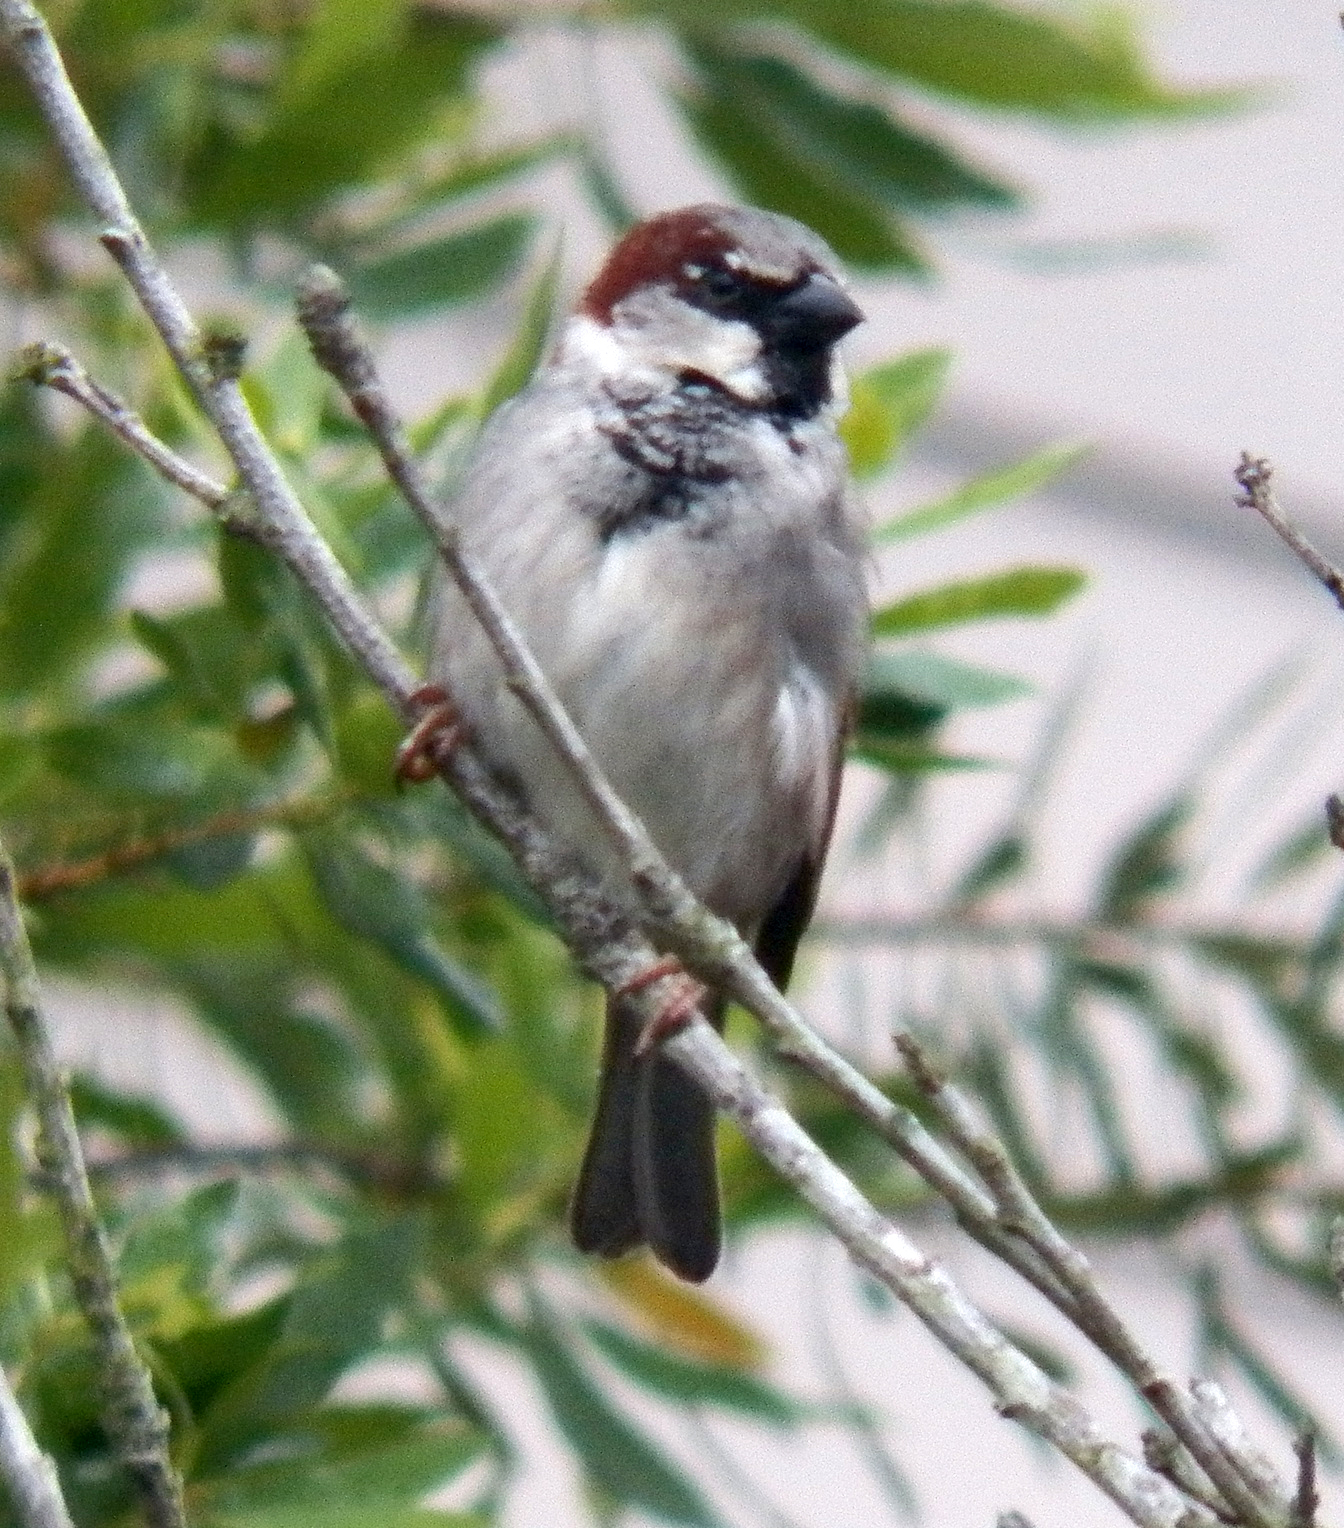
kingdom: Animalia
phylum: Chordata
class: Aves
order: Passeriformes
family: Passeridae
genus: Passer
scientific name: Passer domesticus
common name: House sparrow
